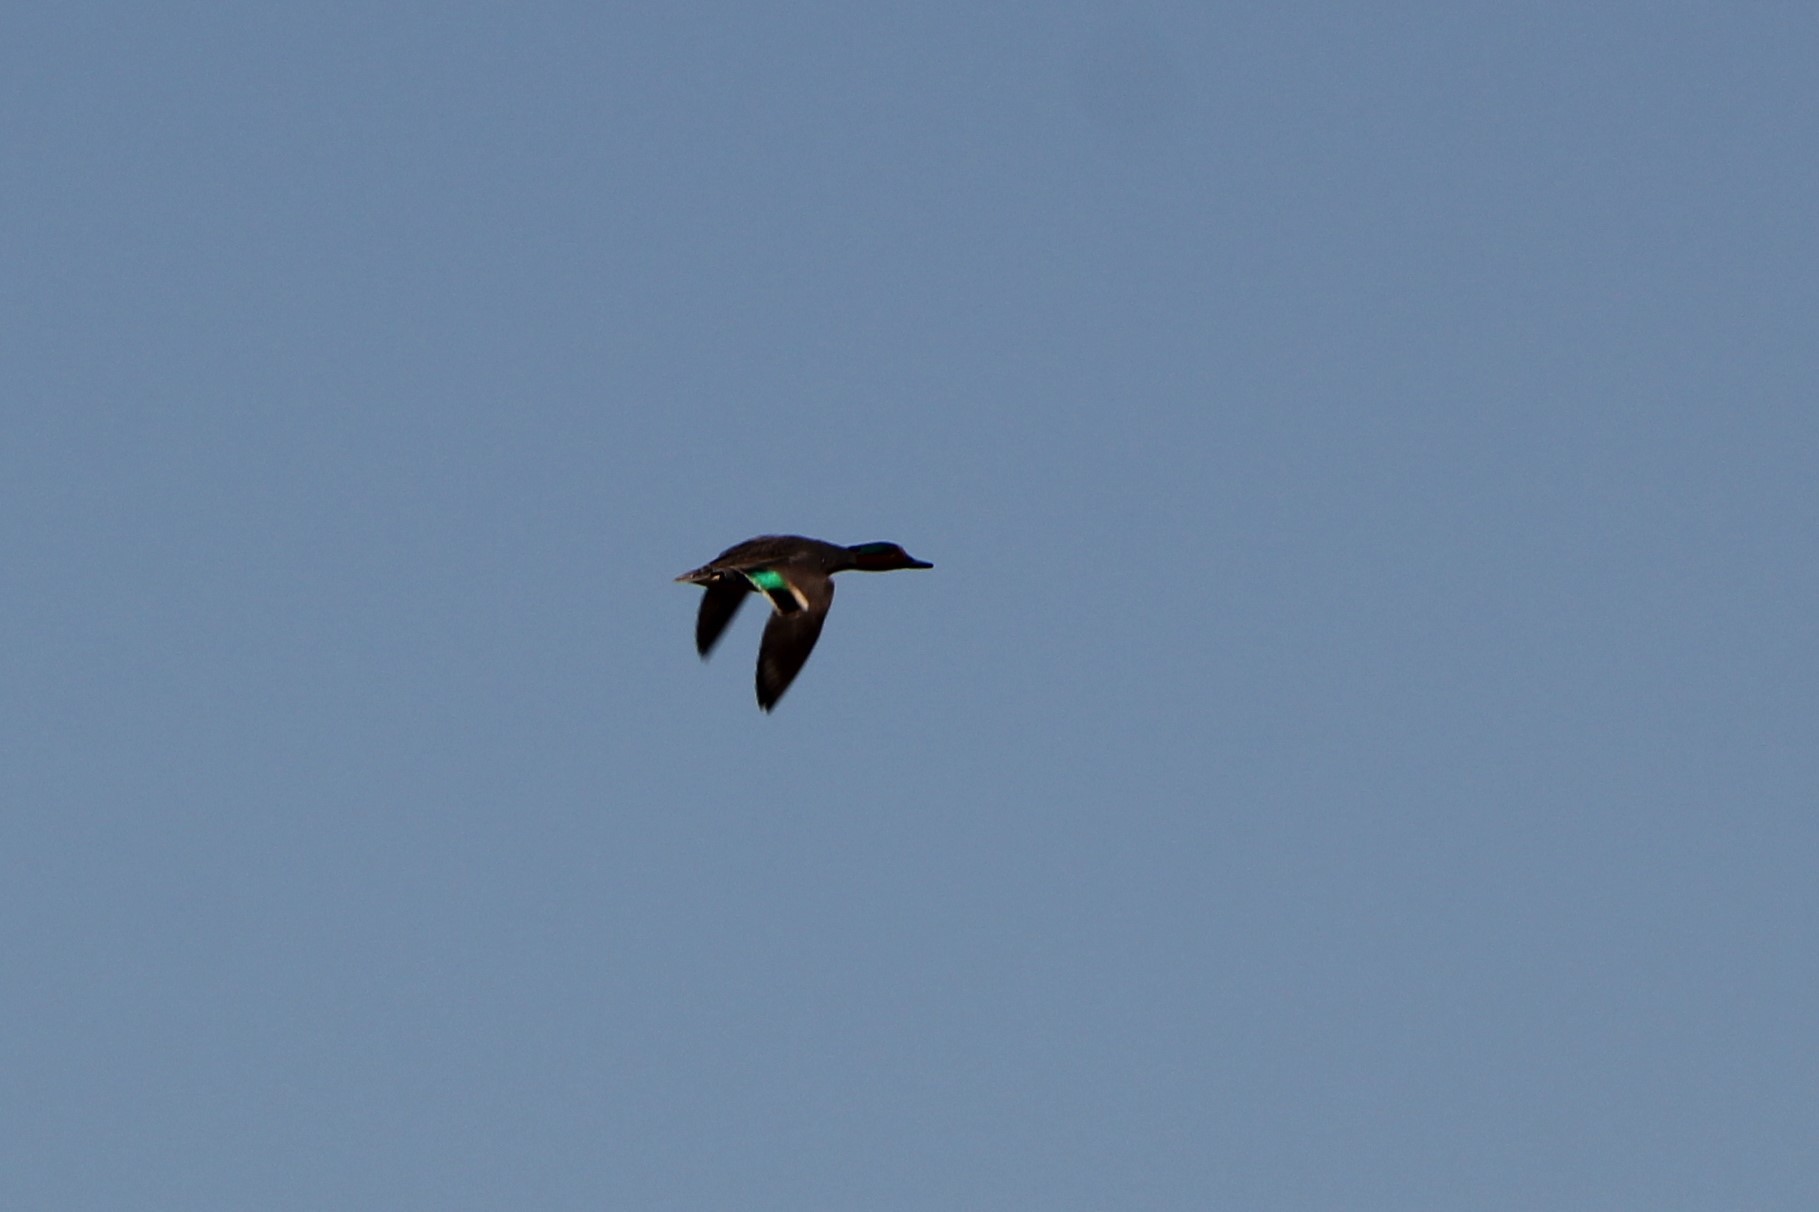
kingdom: Animalia
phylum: Chordata
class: Aves
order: Anseriformes
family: Anatidae
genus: Anas
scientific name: Anas crecca
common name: Eurasian teal
